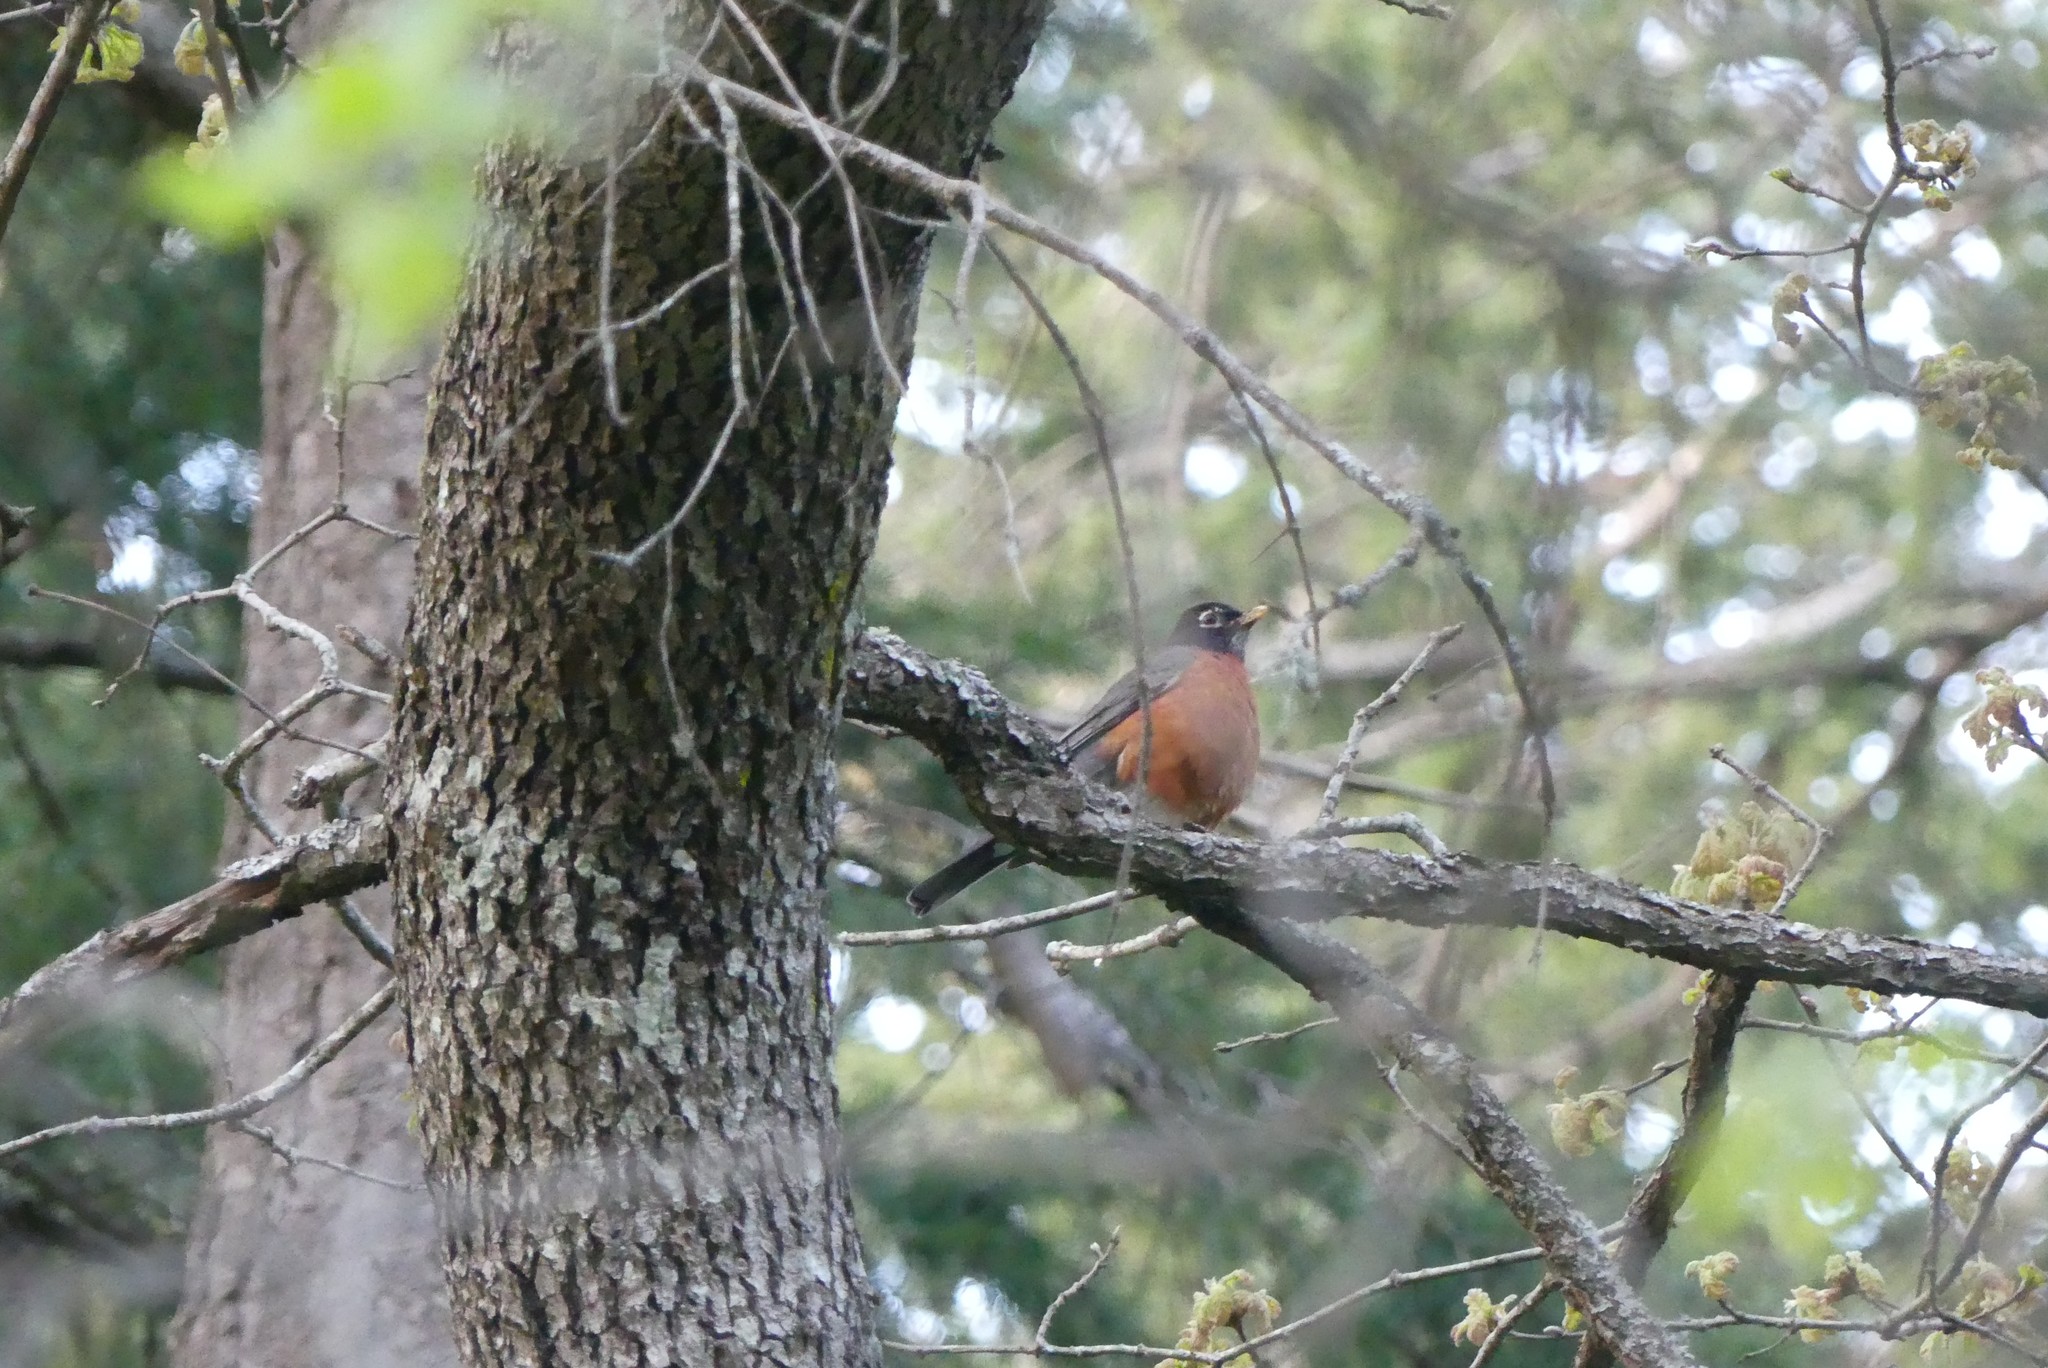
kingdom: Animalia
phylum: Chordata
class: Aves
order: Passeriformes
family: Turdidae
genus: Turdus
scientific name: Turdus migratorius
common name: American robin
